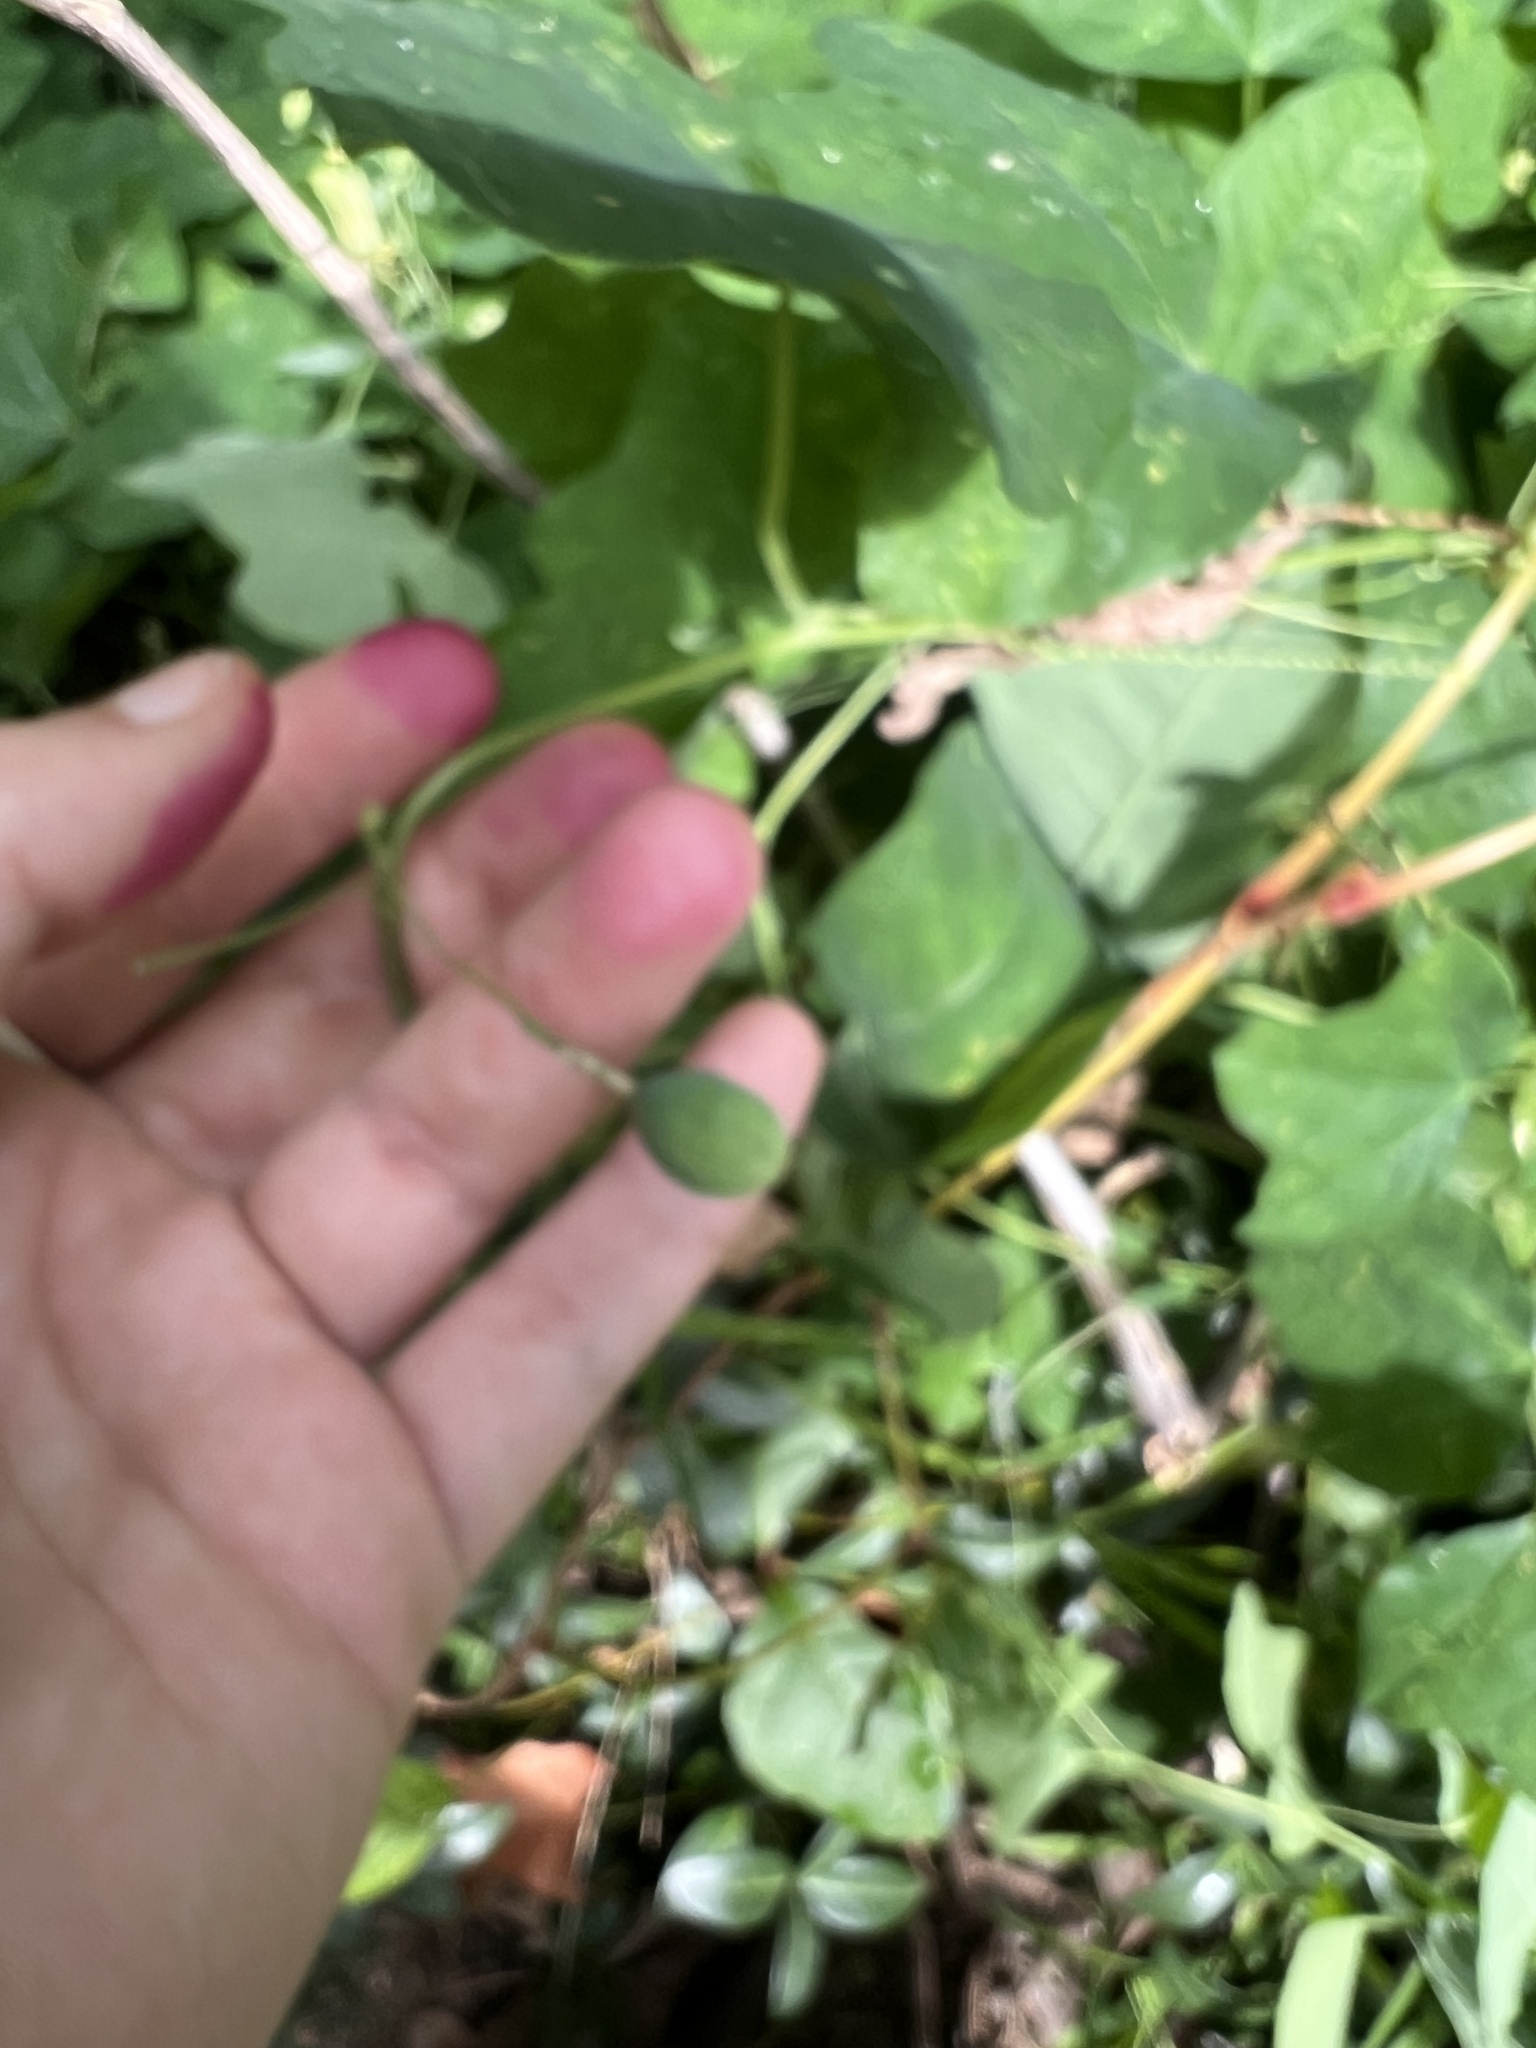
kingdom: Plantae
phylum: Tracheophyta
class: Magnoliopsida
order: Malpighiales
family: Passifloraceae
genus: Passiflora
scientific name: Passiflora lutea
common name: Yellow passionflower
